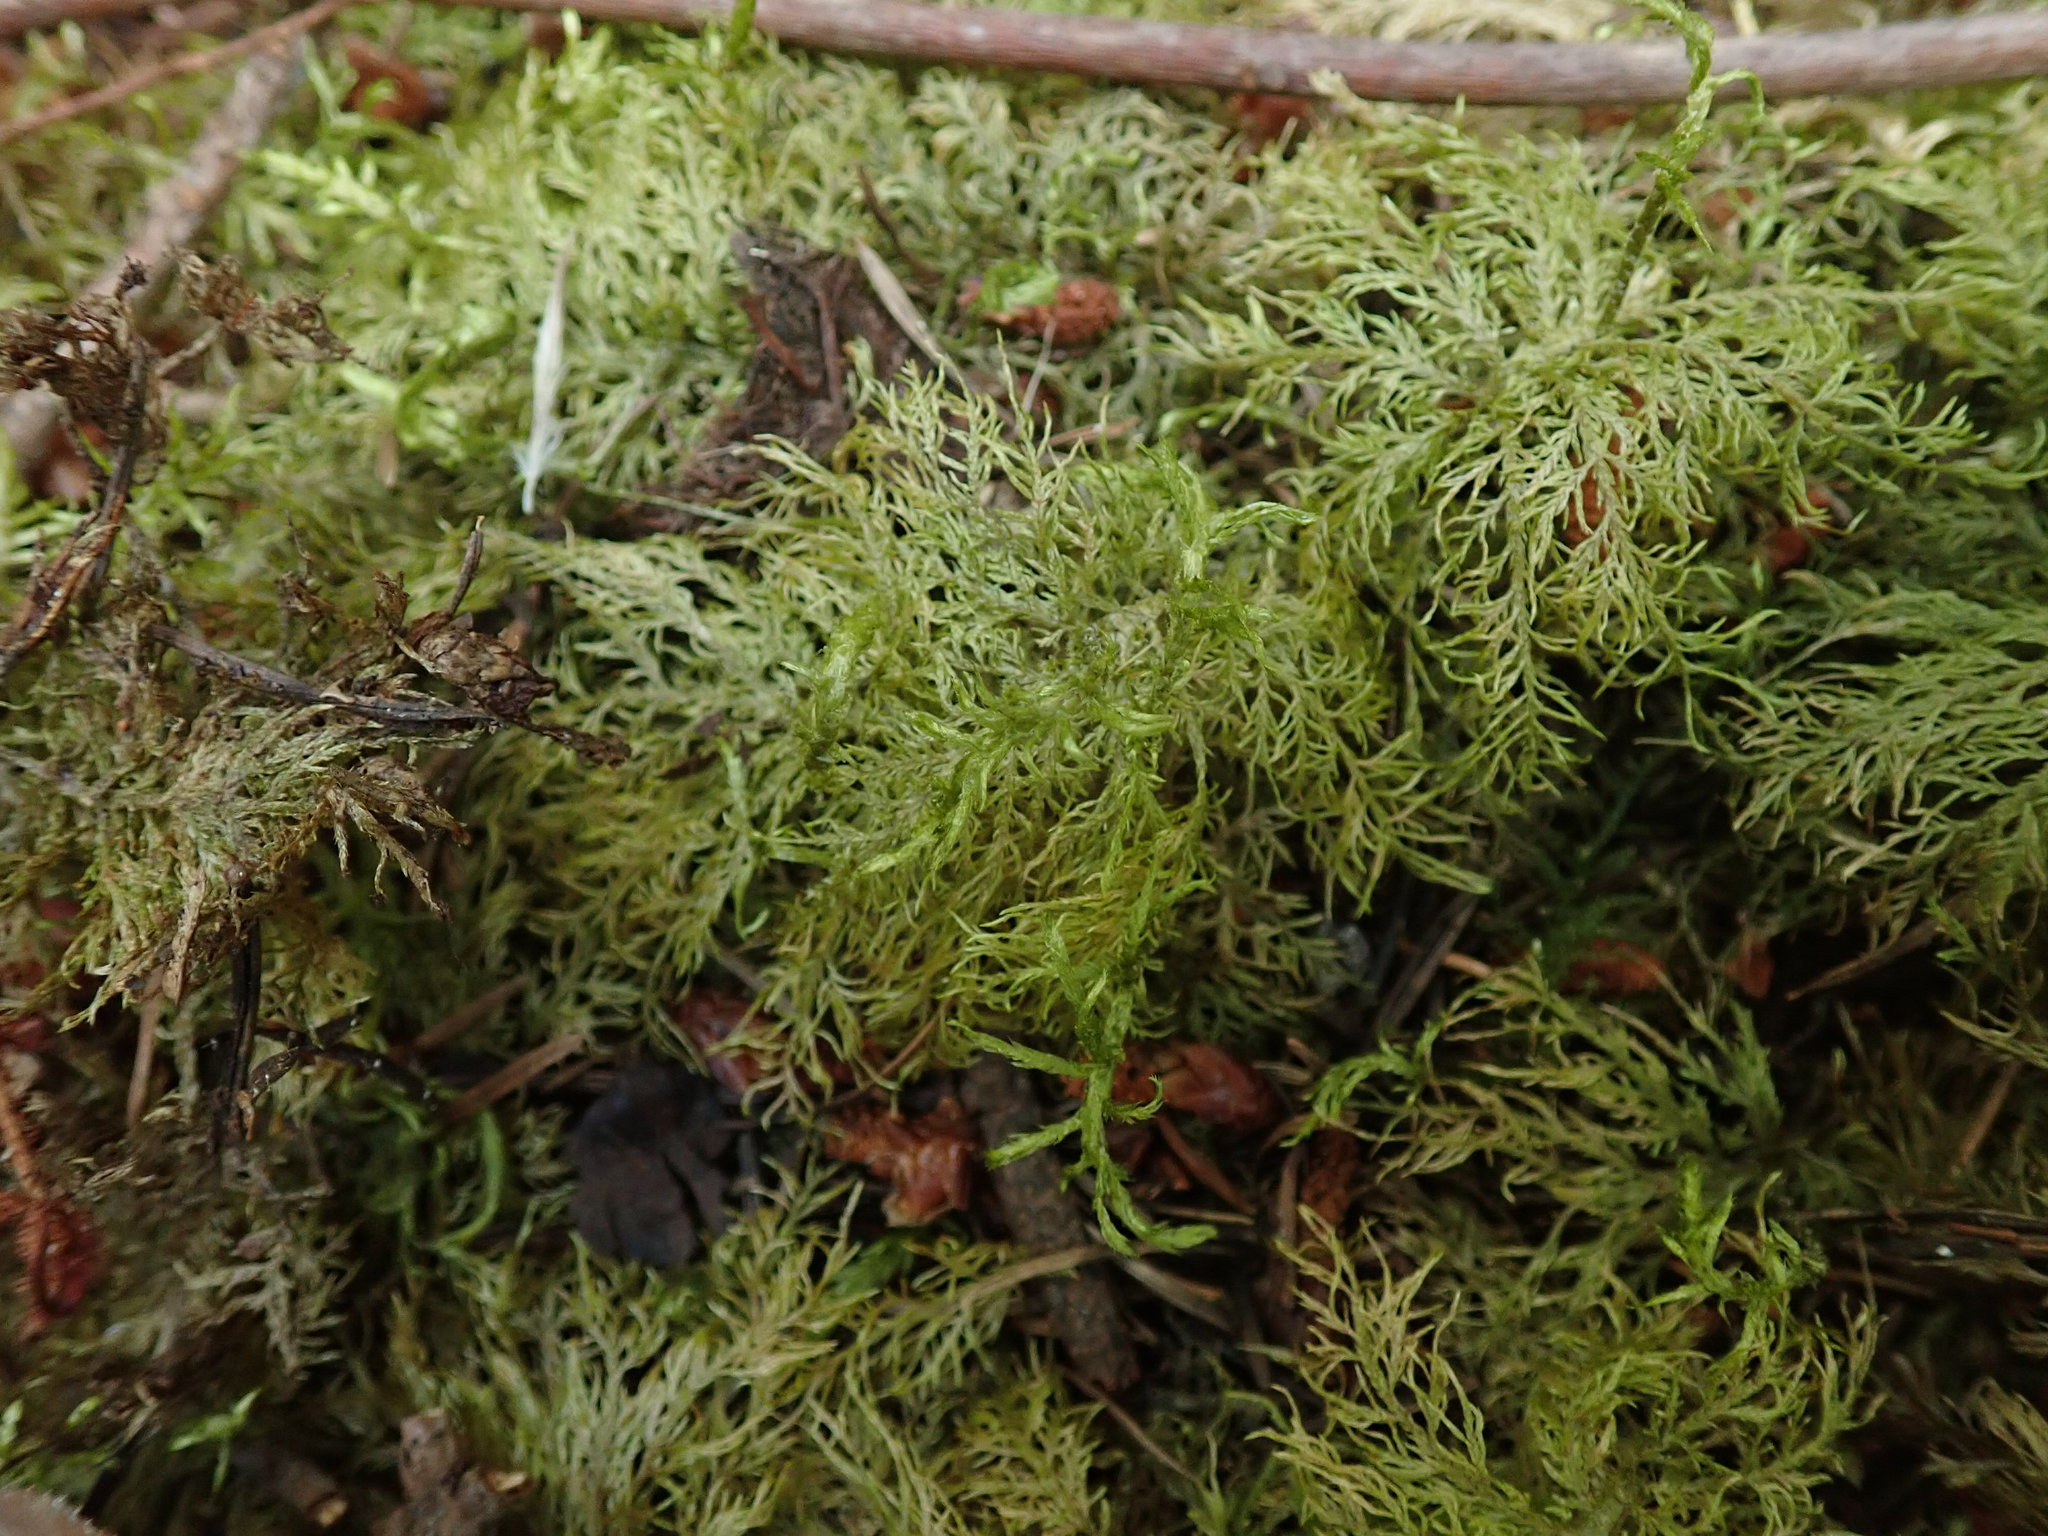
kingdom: Plantae
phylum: Bryophyta
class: Bryopsida
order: Hypnales
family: Hylocomiaceae
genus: Hylocomium
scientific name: Hylocomium splendens
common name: Stairstep moss
